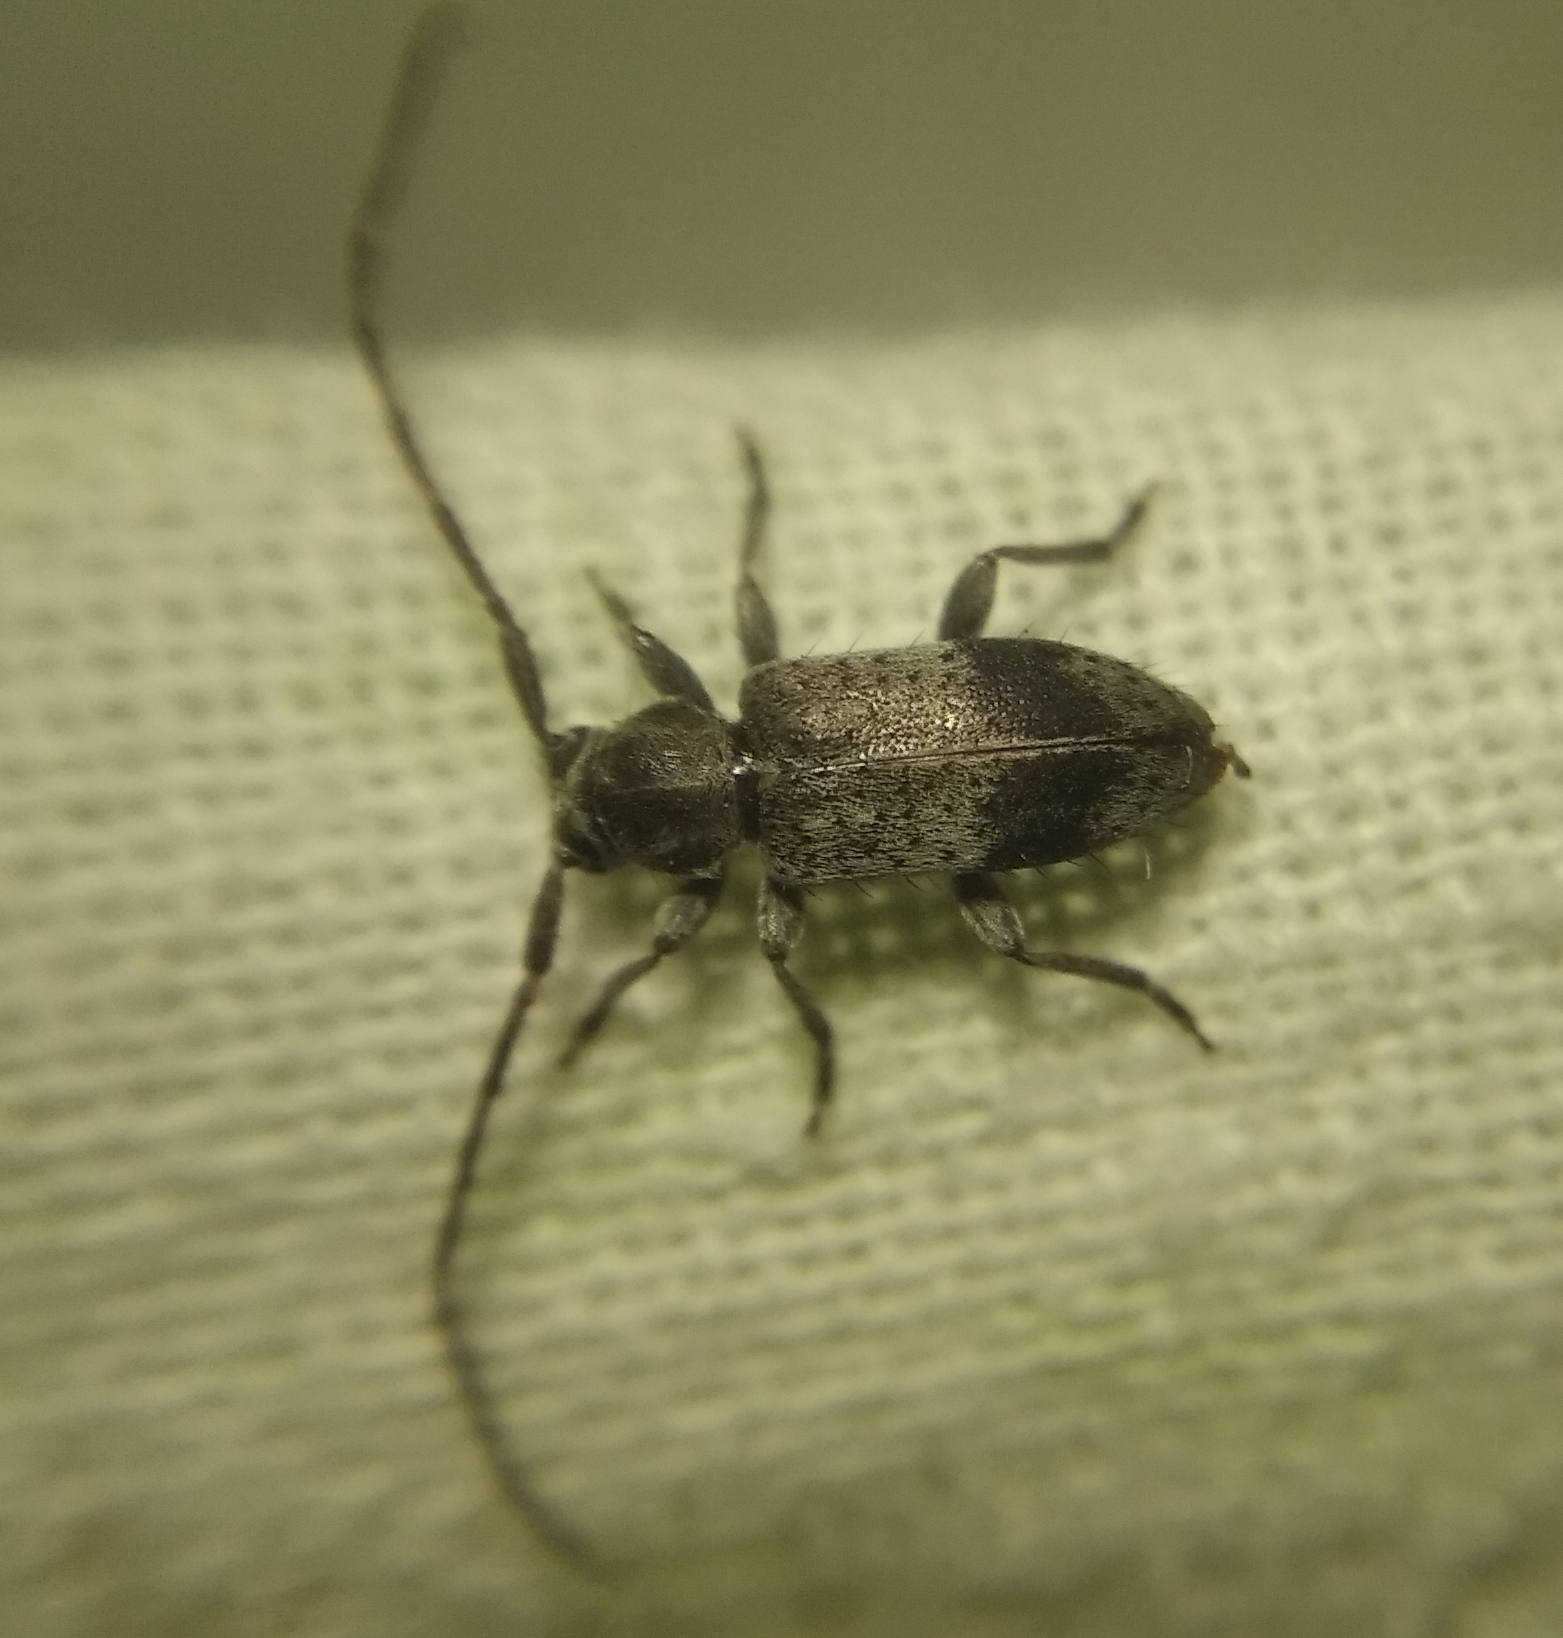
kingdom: Animalia
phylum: Arthropoda
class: Insecta
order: Coleoptera
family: Cerambycidae
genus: Exocentrus
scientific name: Exocentrus punctipennis
